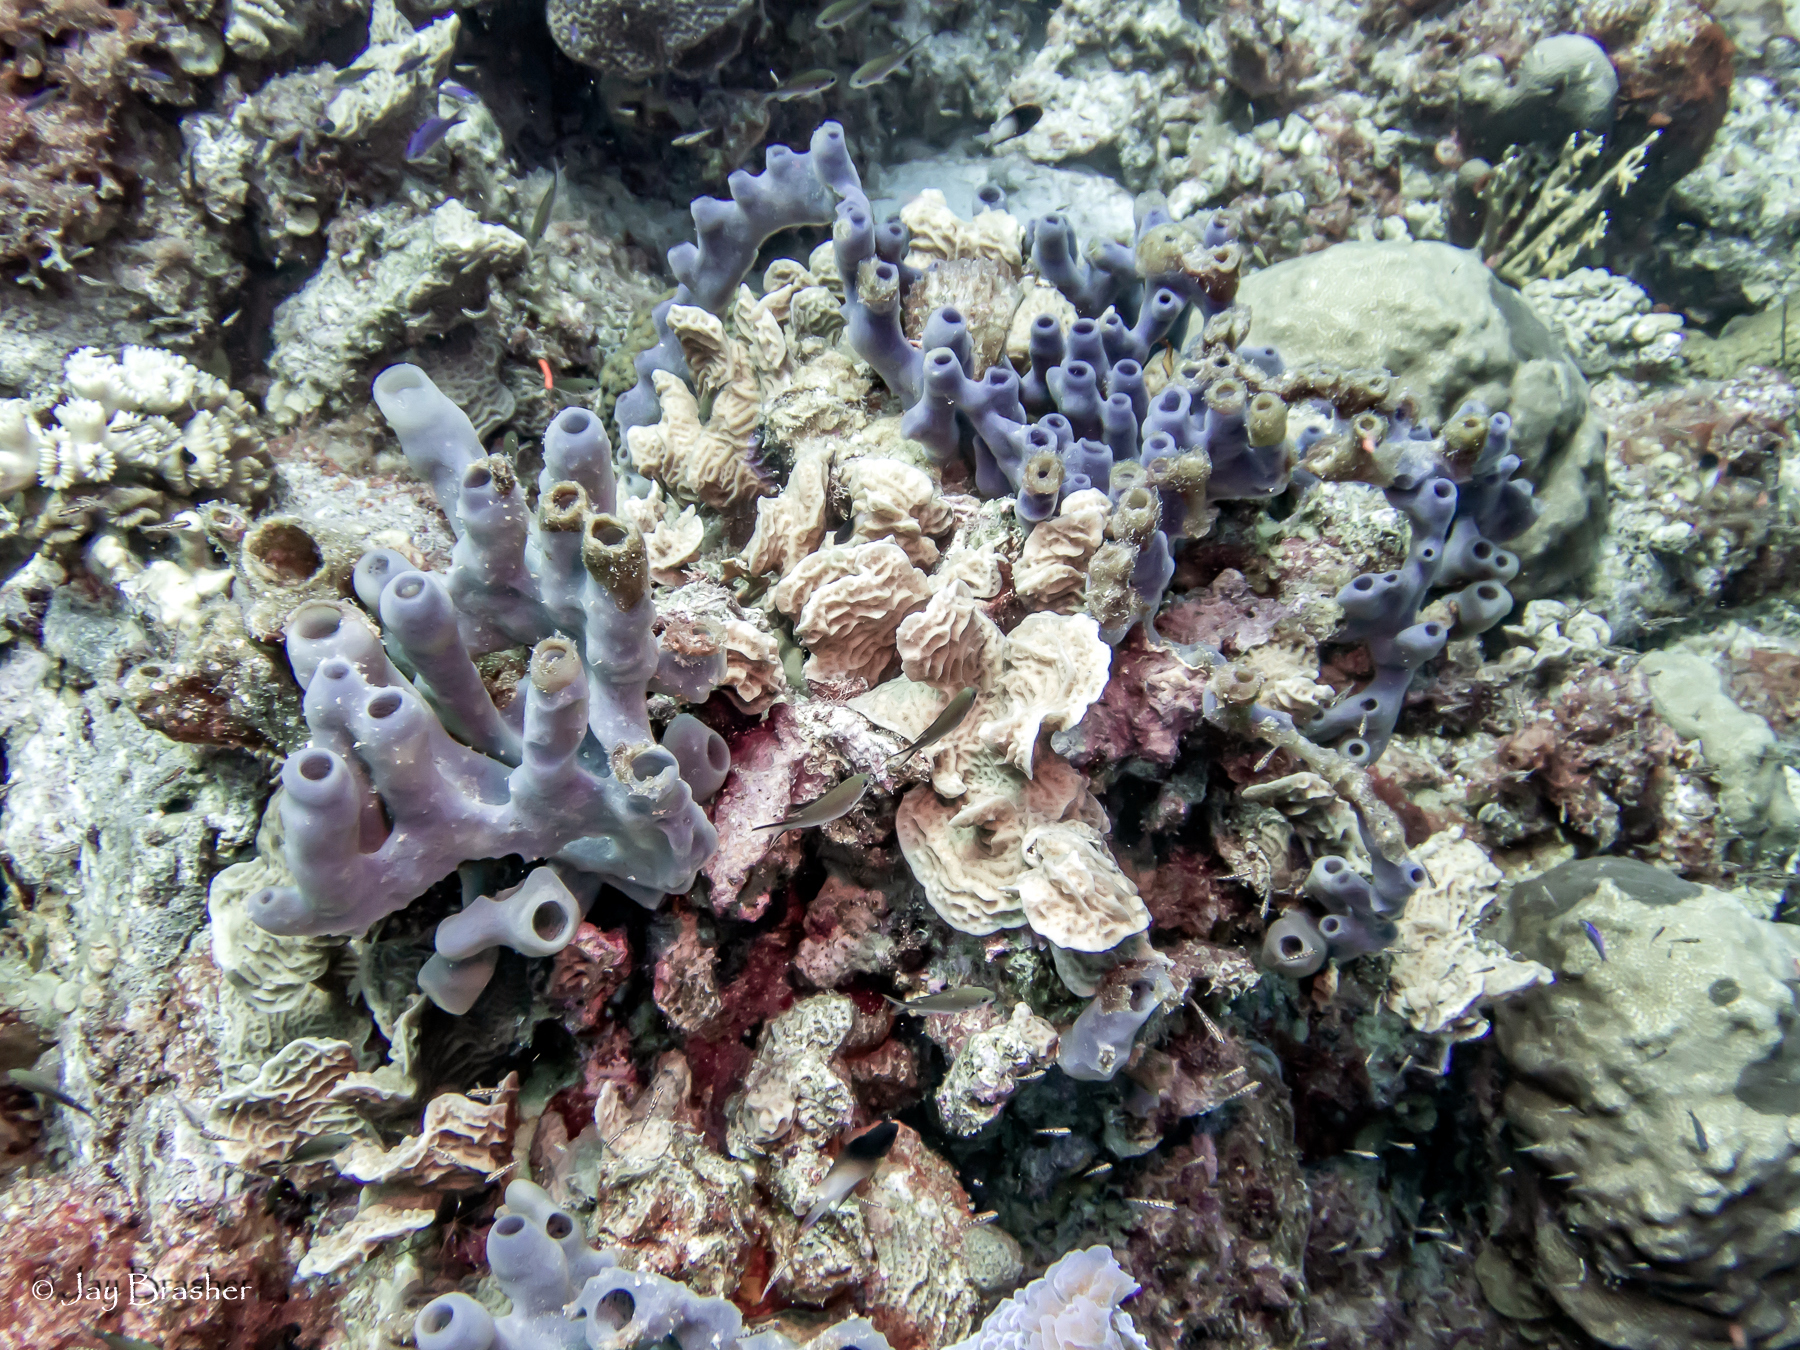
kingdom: Animalia
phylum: Porifera
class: Demospongiae
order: Haplosclerida
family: Callyspongiidae
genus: Callyspongia
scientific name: Callyspongia fallax
